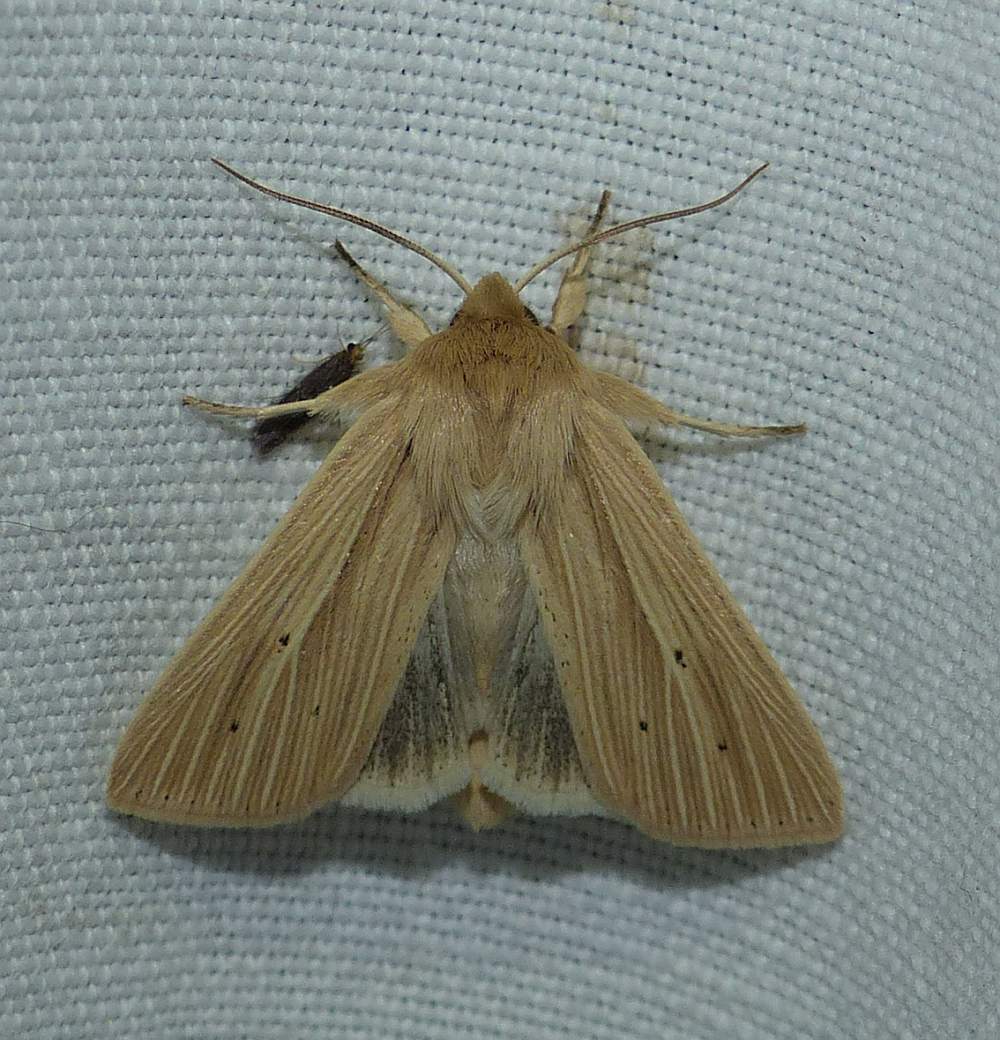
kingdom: Animalia
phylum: Arthropoda
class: Insecta
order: Lepidoptera
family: Noctuidae
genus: Mythimna
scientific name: Mythimna oxygala
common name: Lesser wainscot
